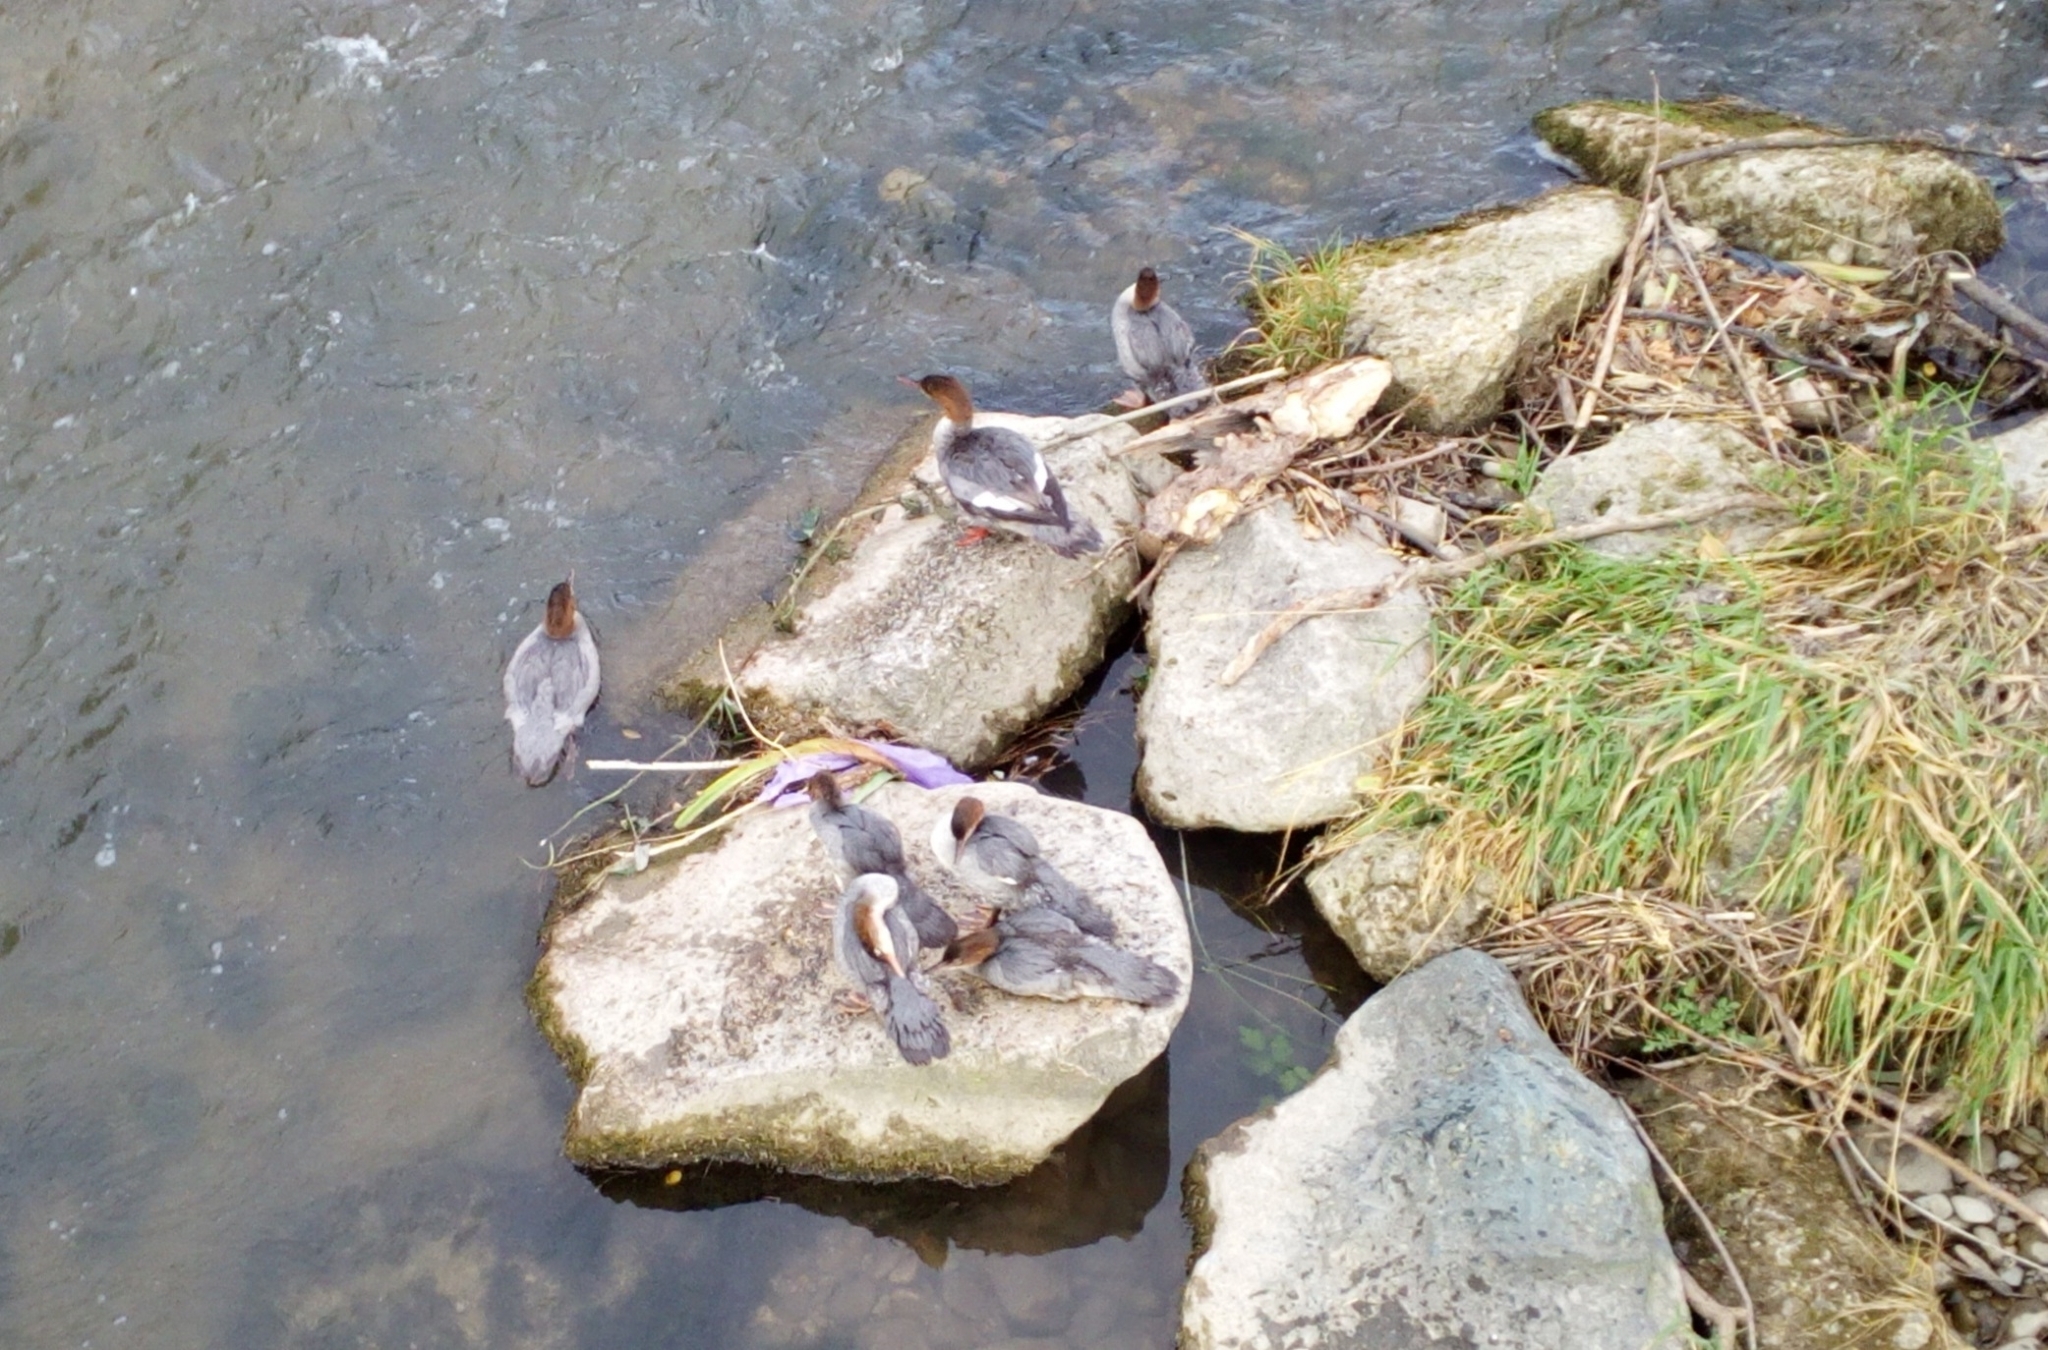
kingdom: Animalia
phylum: Chordata
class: Aves
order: Anseriformes
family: Anatidae
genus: Mergus
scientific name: Mergus merganser
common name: Common merganser
